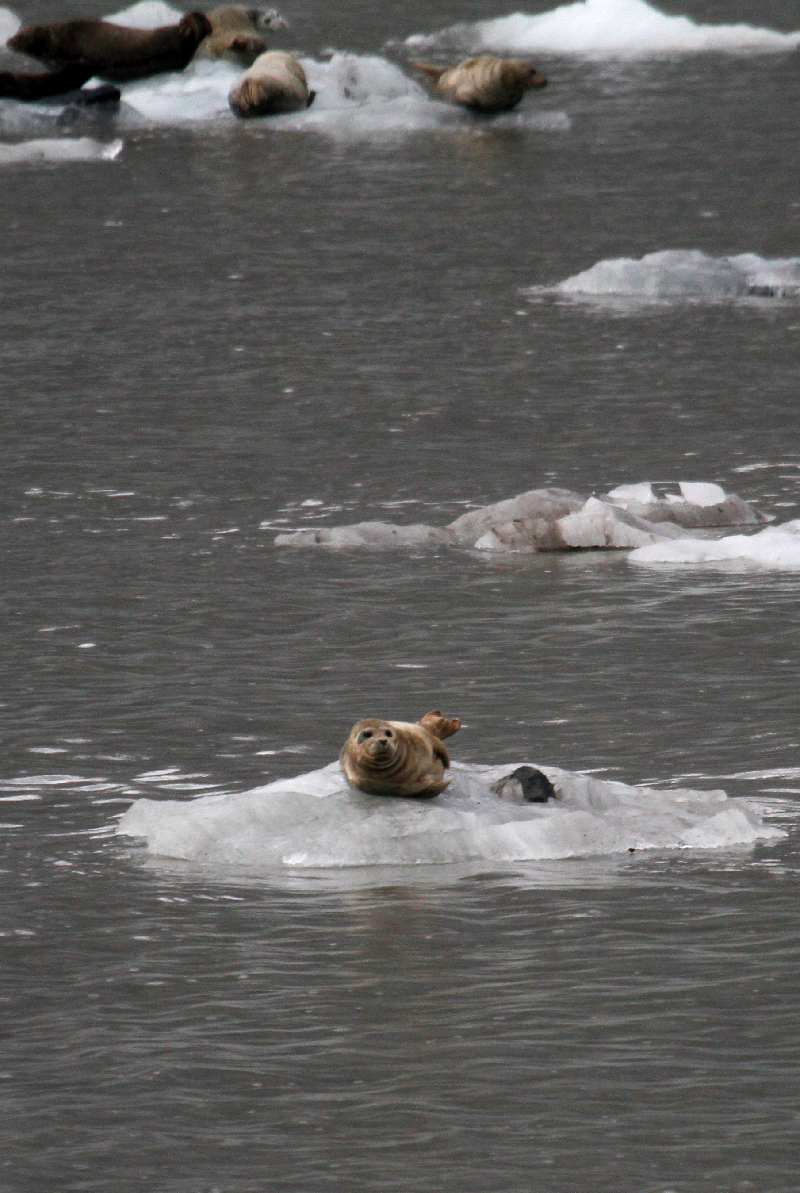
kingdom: Animalia
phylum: Chordata
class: Mammalia
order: Carnivora
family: Phocidae
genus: Phoca
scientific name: Phoca vitulina
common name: Harbor seal
